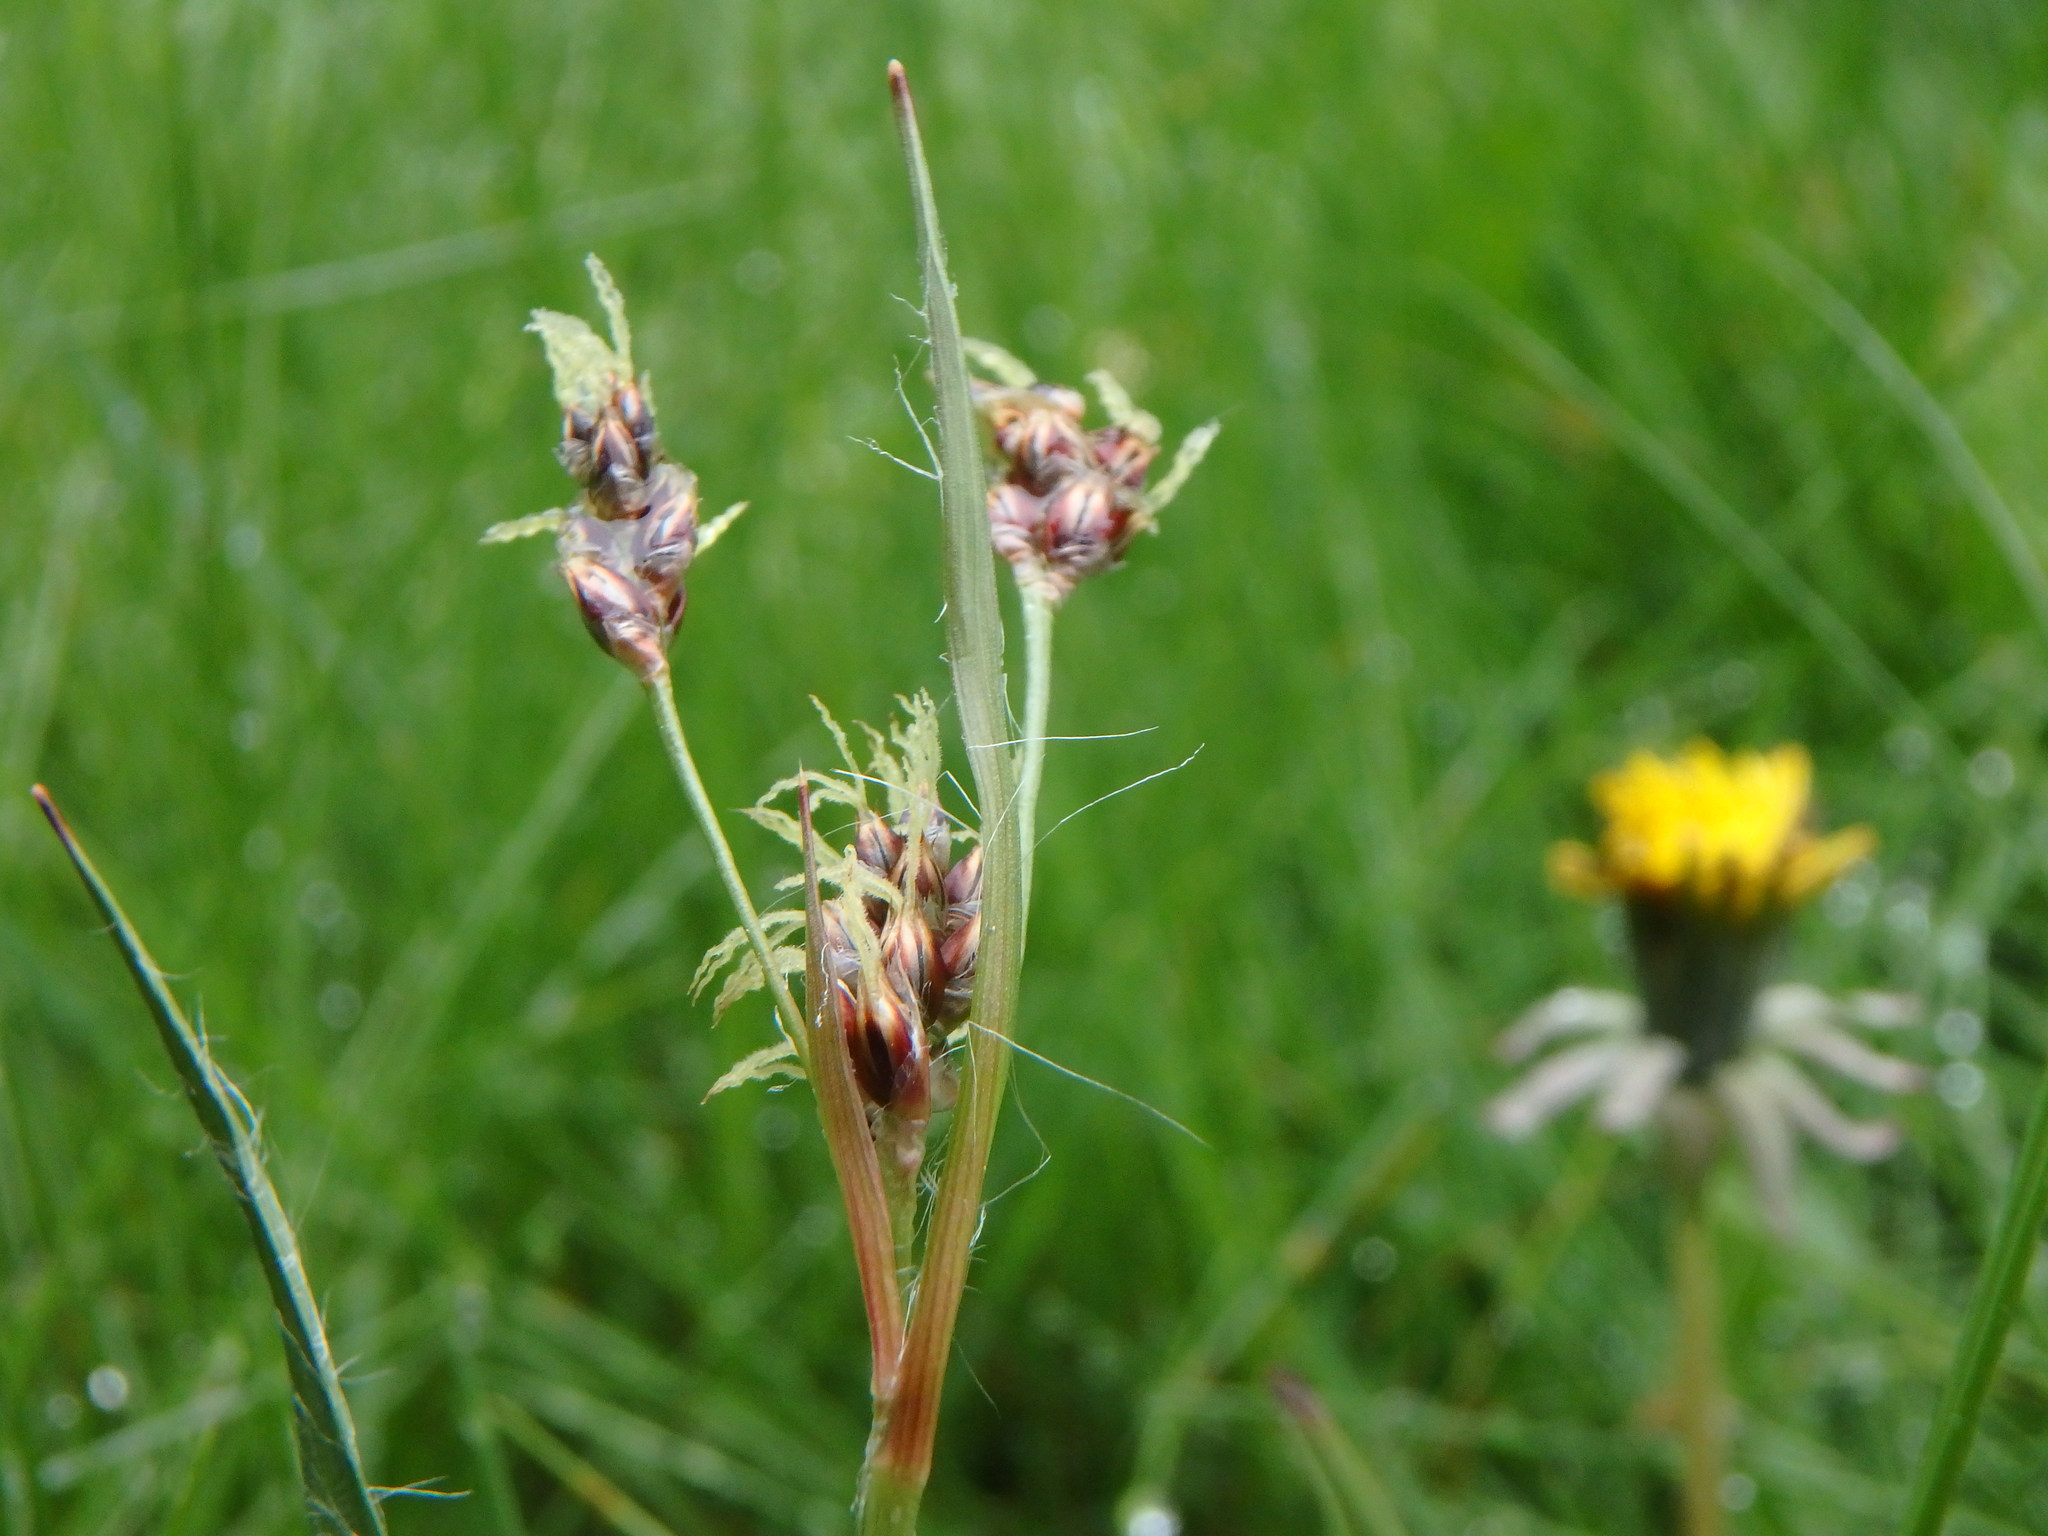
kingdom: Plantae
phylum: Tracheophyta
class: Liliopsida
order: Poales
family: Juncaceae
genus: Luzula
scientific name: Luzula campestris
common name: Field wood-rush
